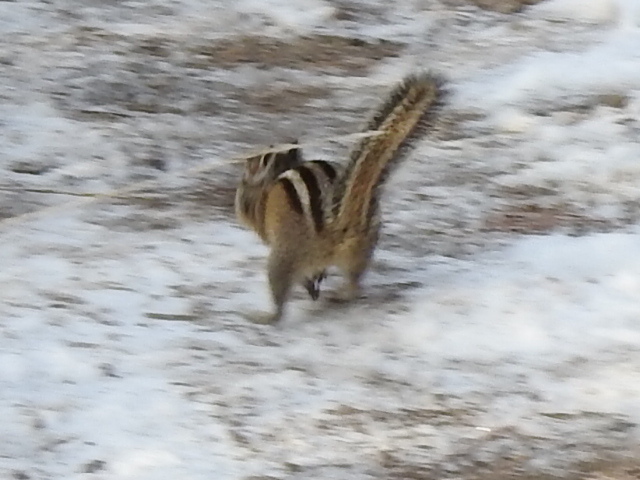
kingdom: Animalia
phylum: Chordata
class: Mammalia
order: Rodentia
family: Sciuridae
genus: Tamias
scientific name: Tamias amoenus
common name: Yellow-pine chipmunk
